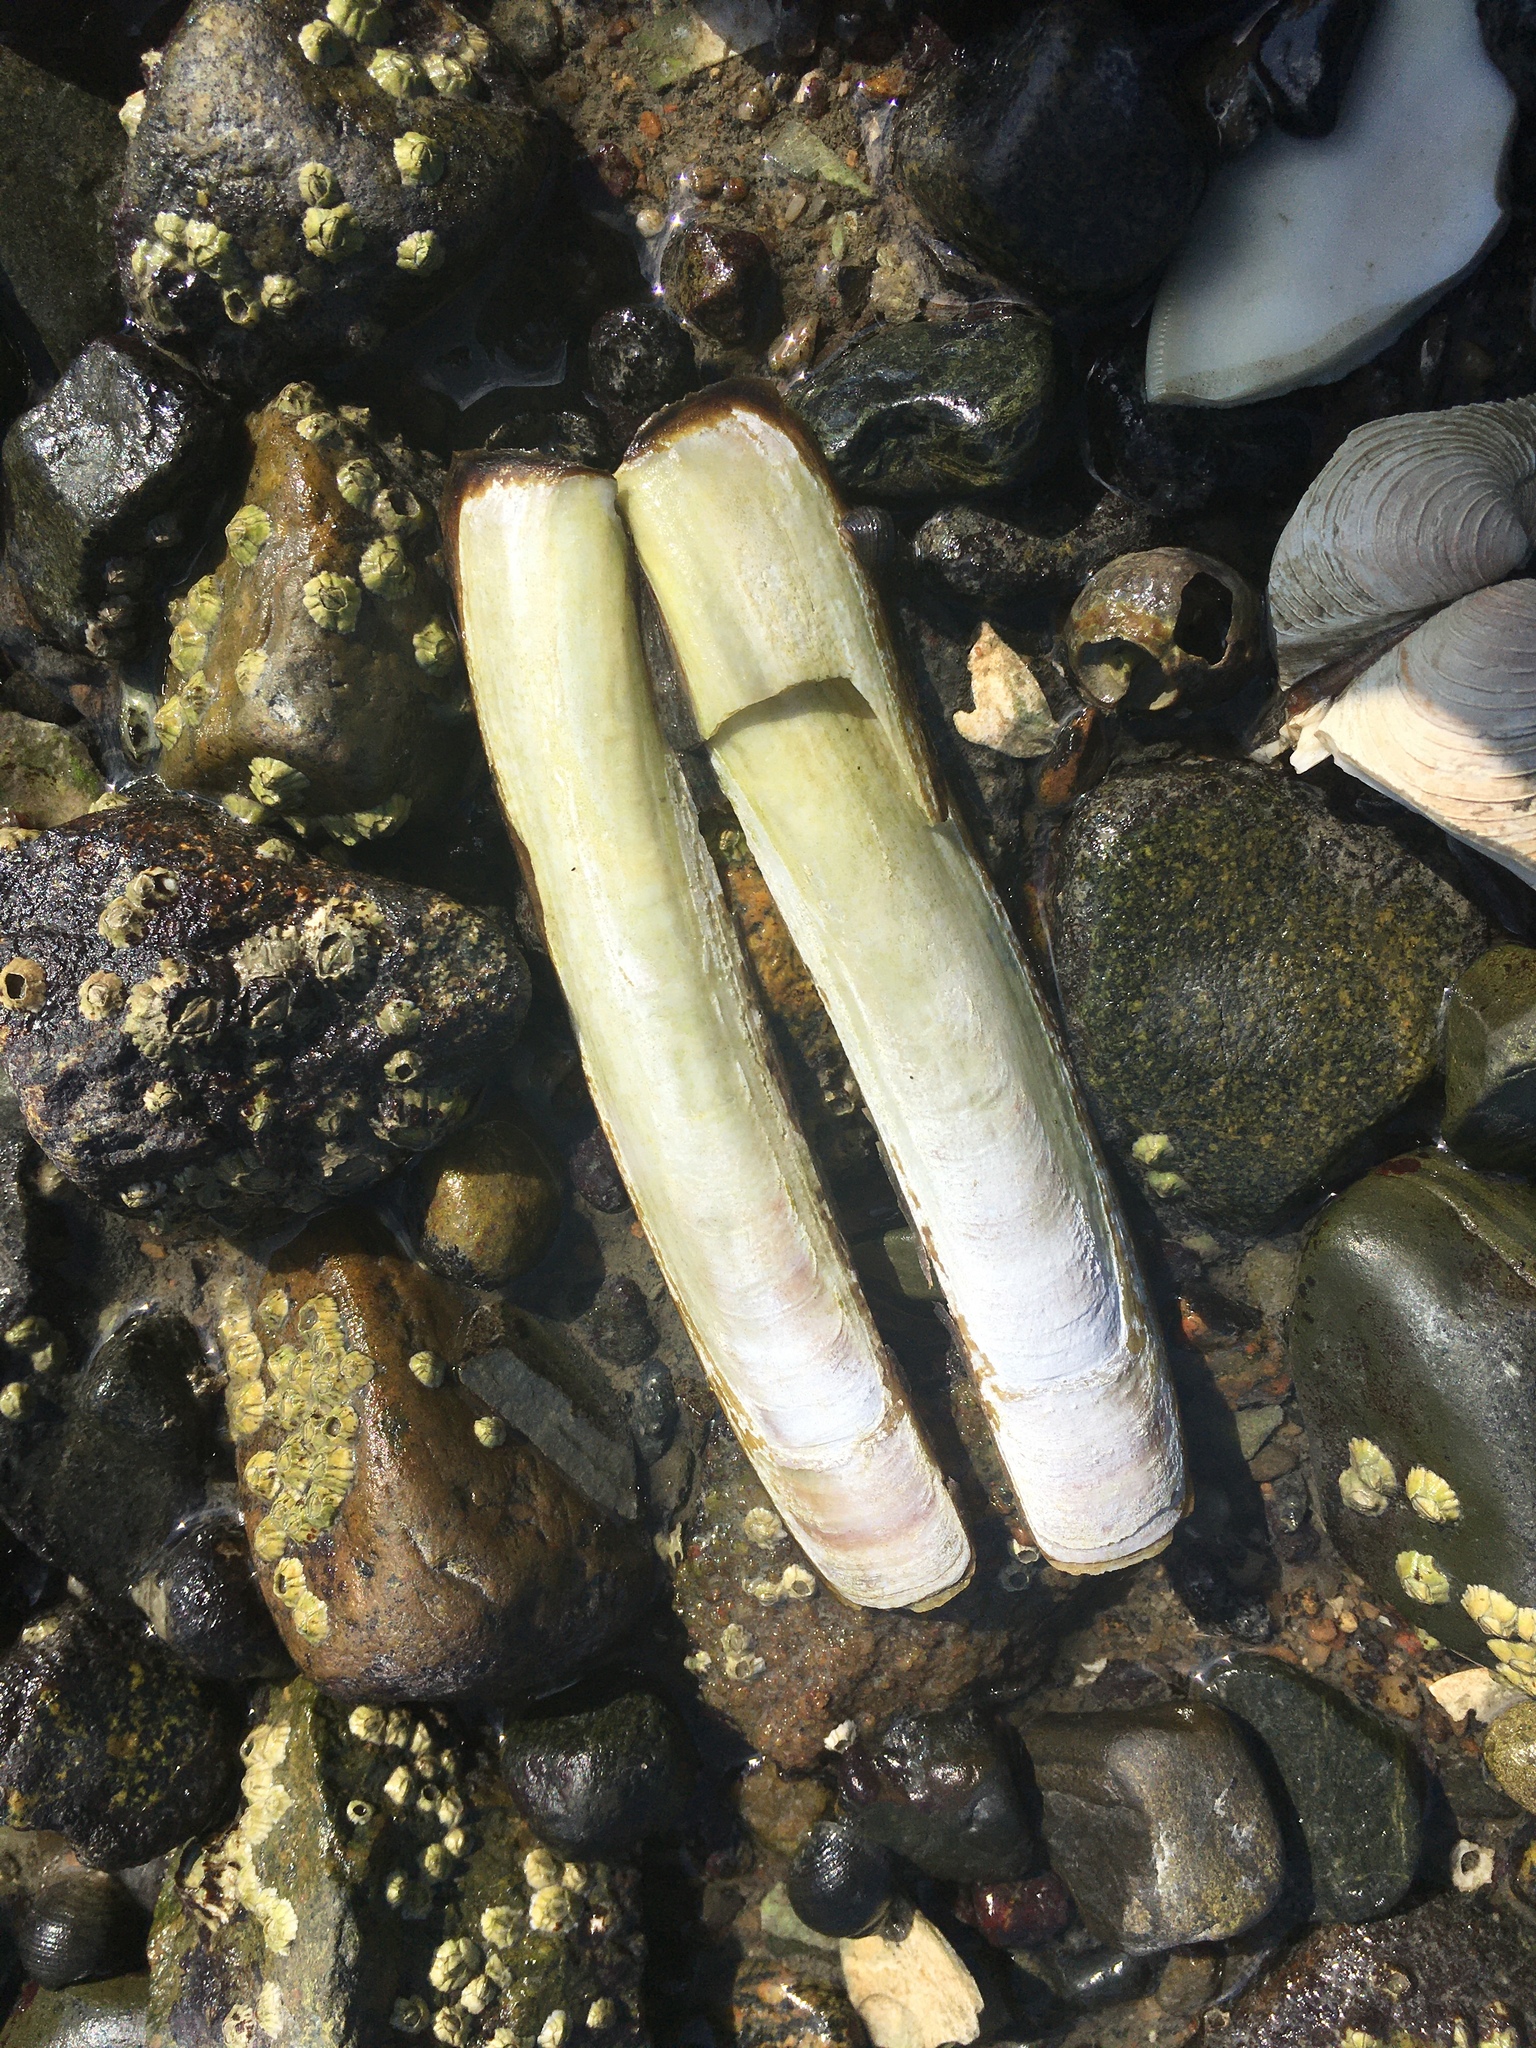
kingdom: Animalia
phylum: Mollusca
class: Bivalvia
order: Adapedonta
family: Pharidae
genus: Ensis
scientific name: Ensis leei
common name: American jack knife clam
